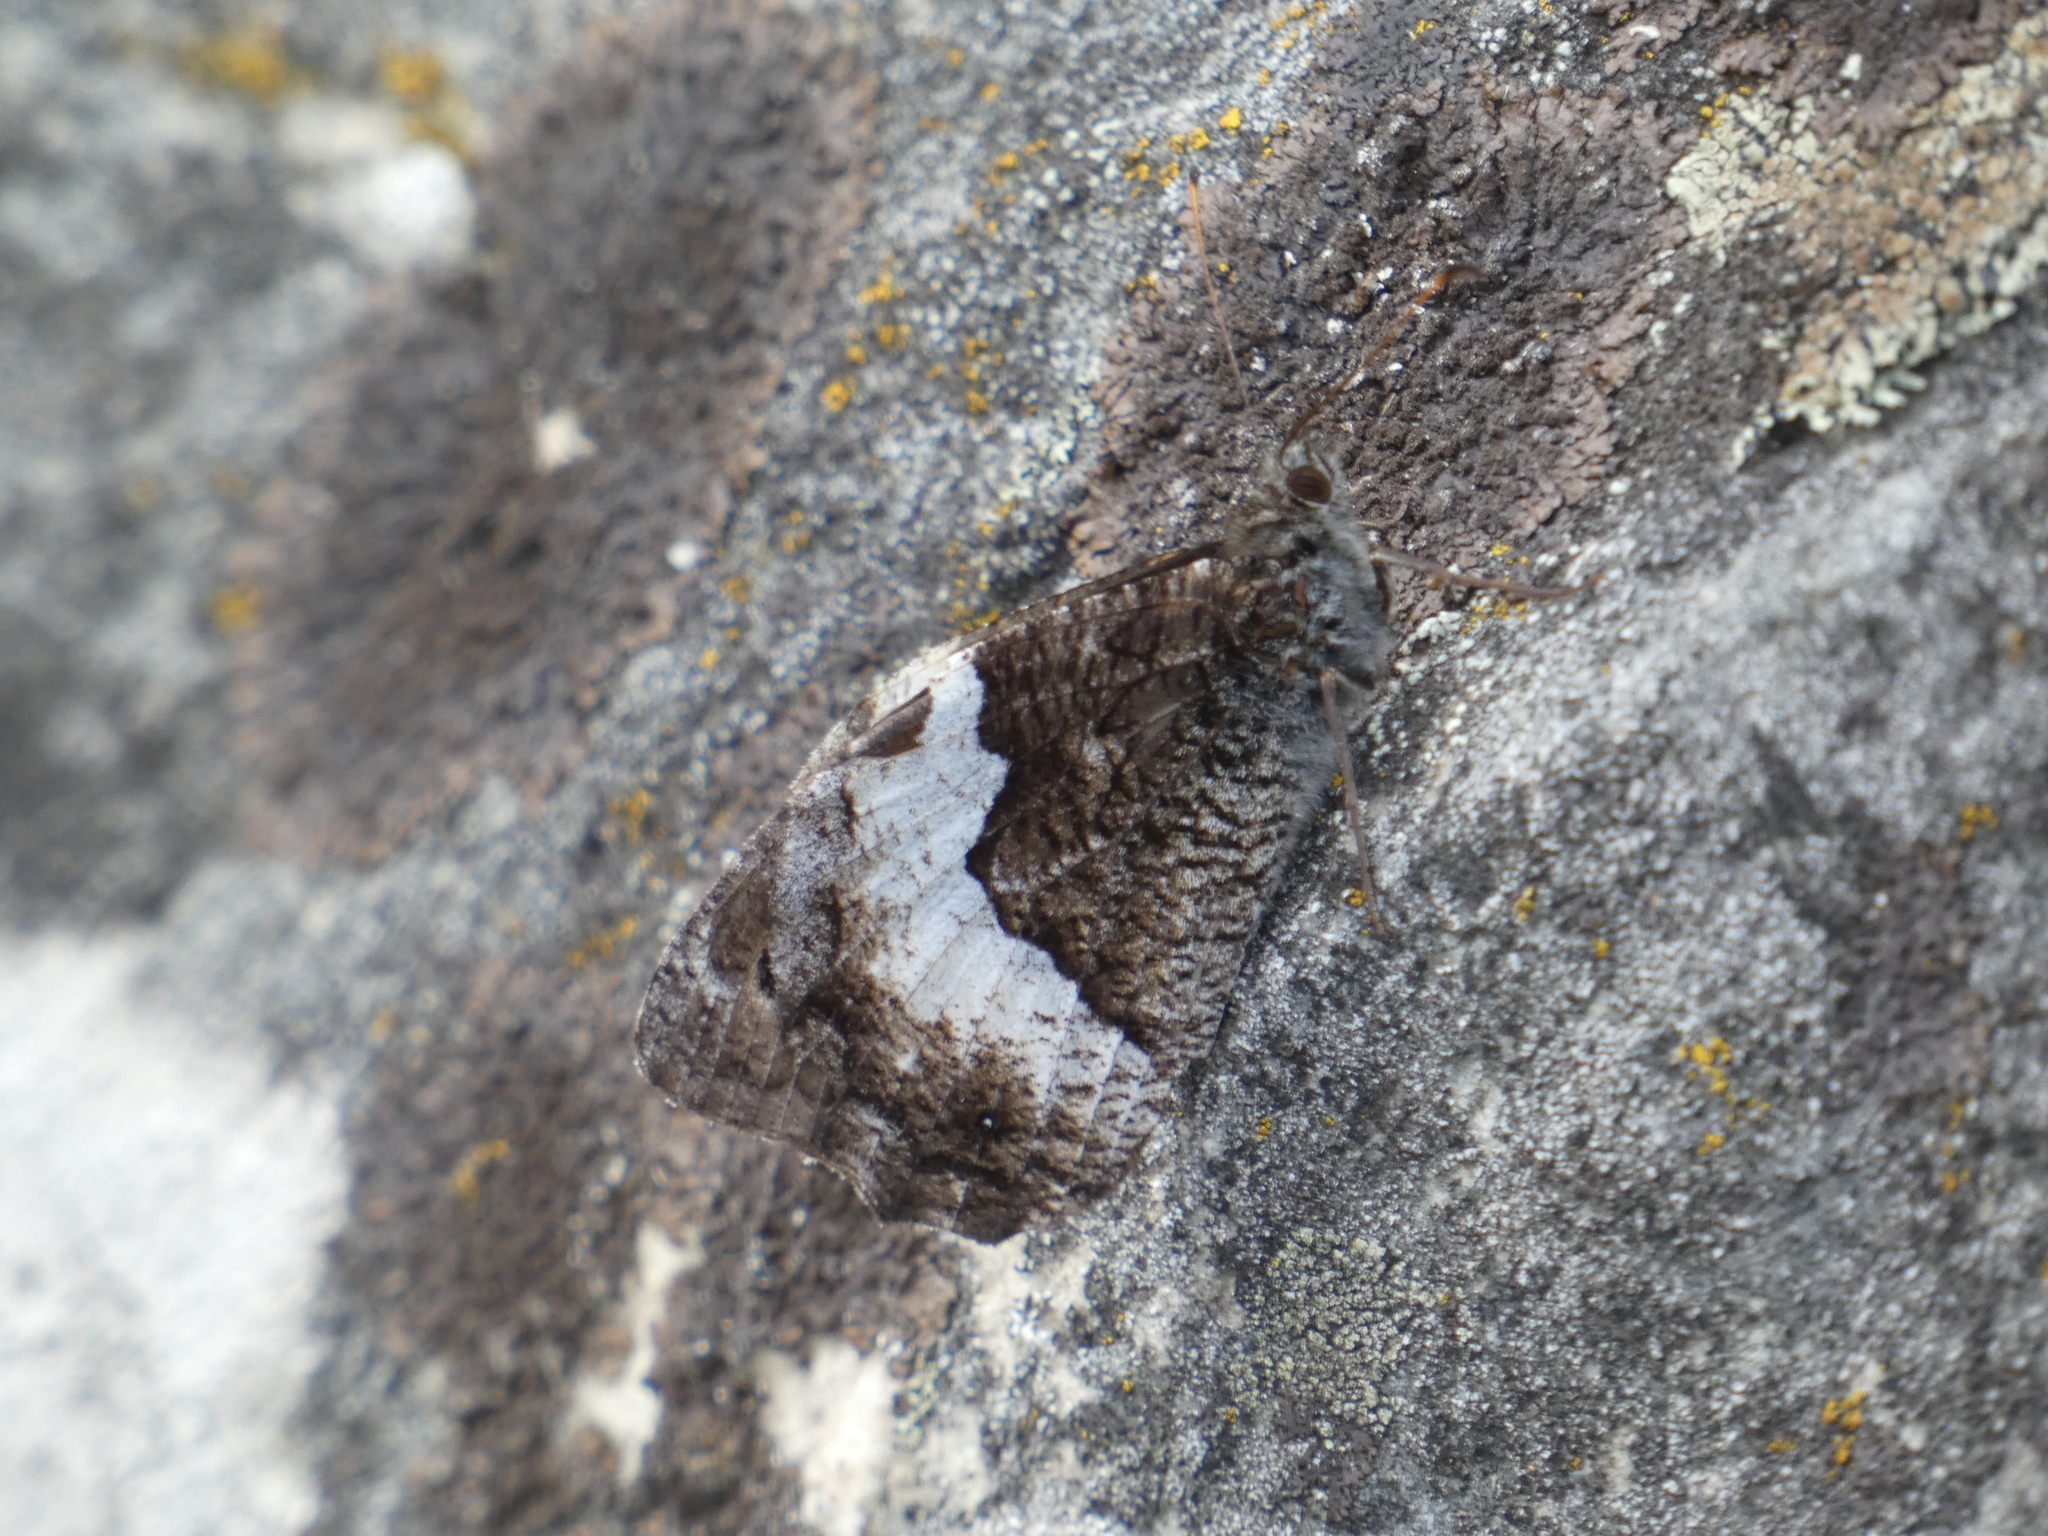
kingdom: Animalia
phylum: Arthropoda
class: Insecta
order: Lepidoptera
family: Nymphalidae
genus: Hipparchia
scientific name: Hipparchia fagi
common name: Woodland grayling
